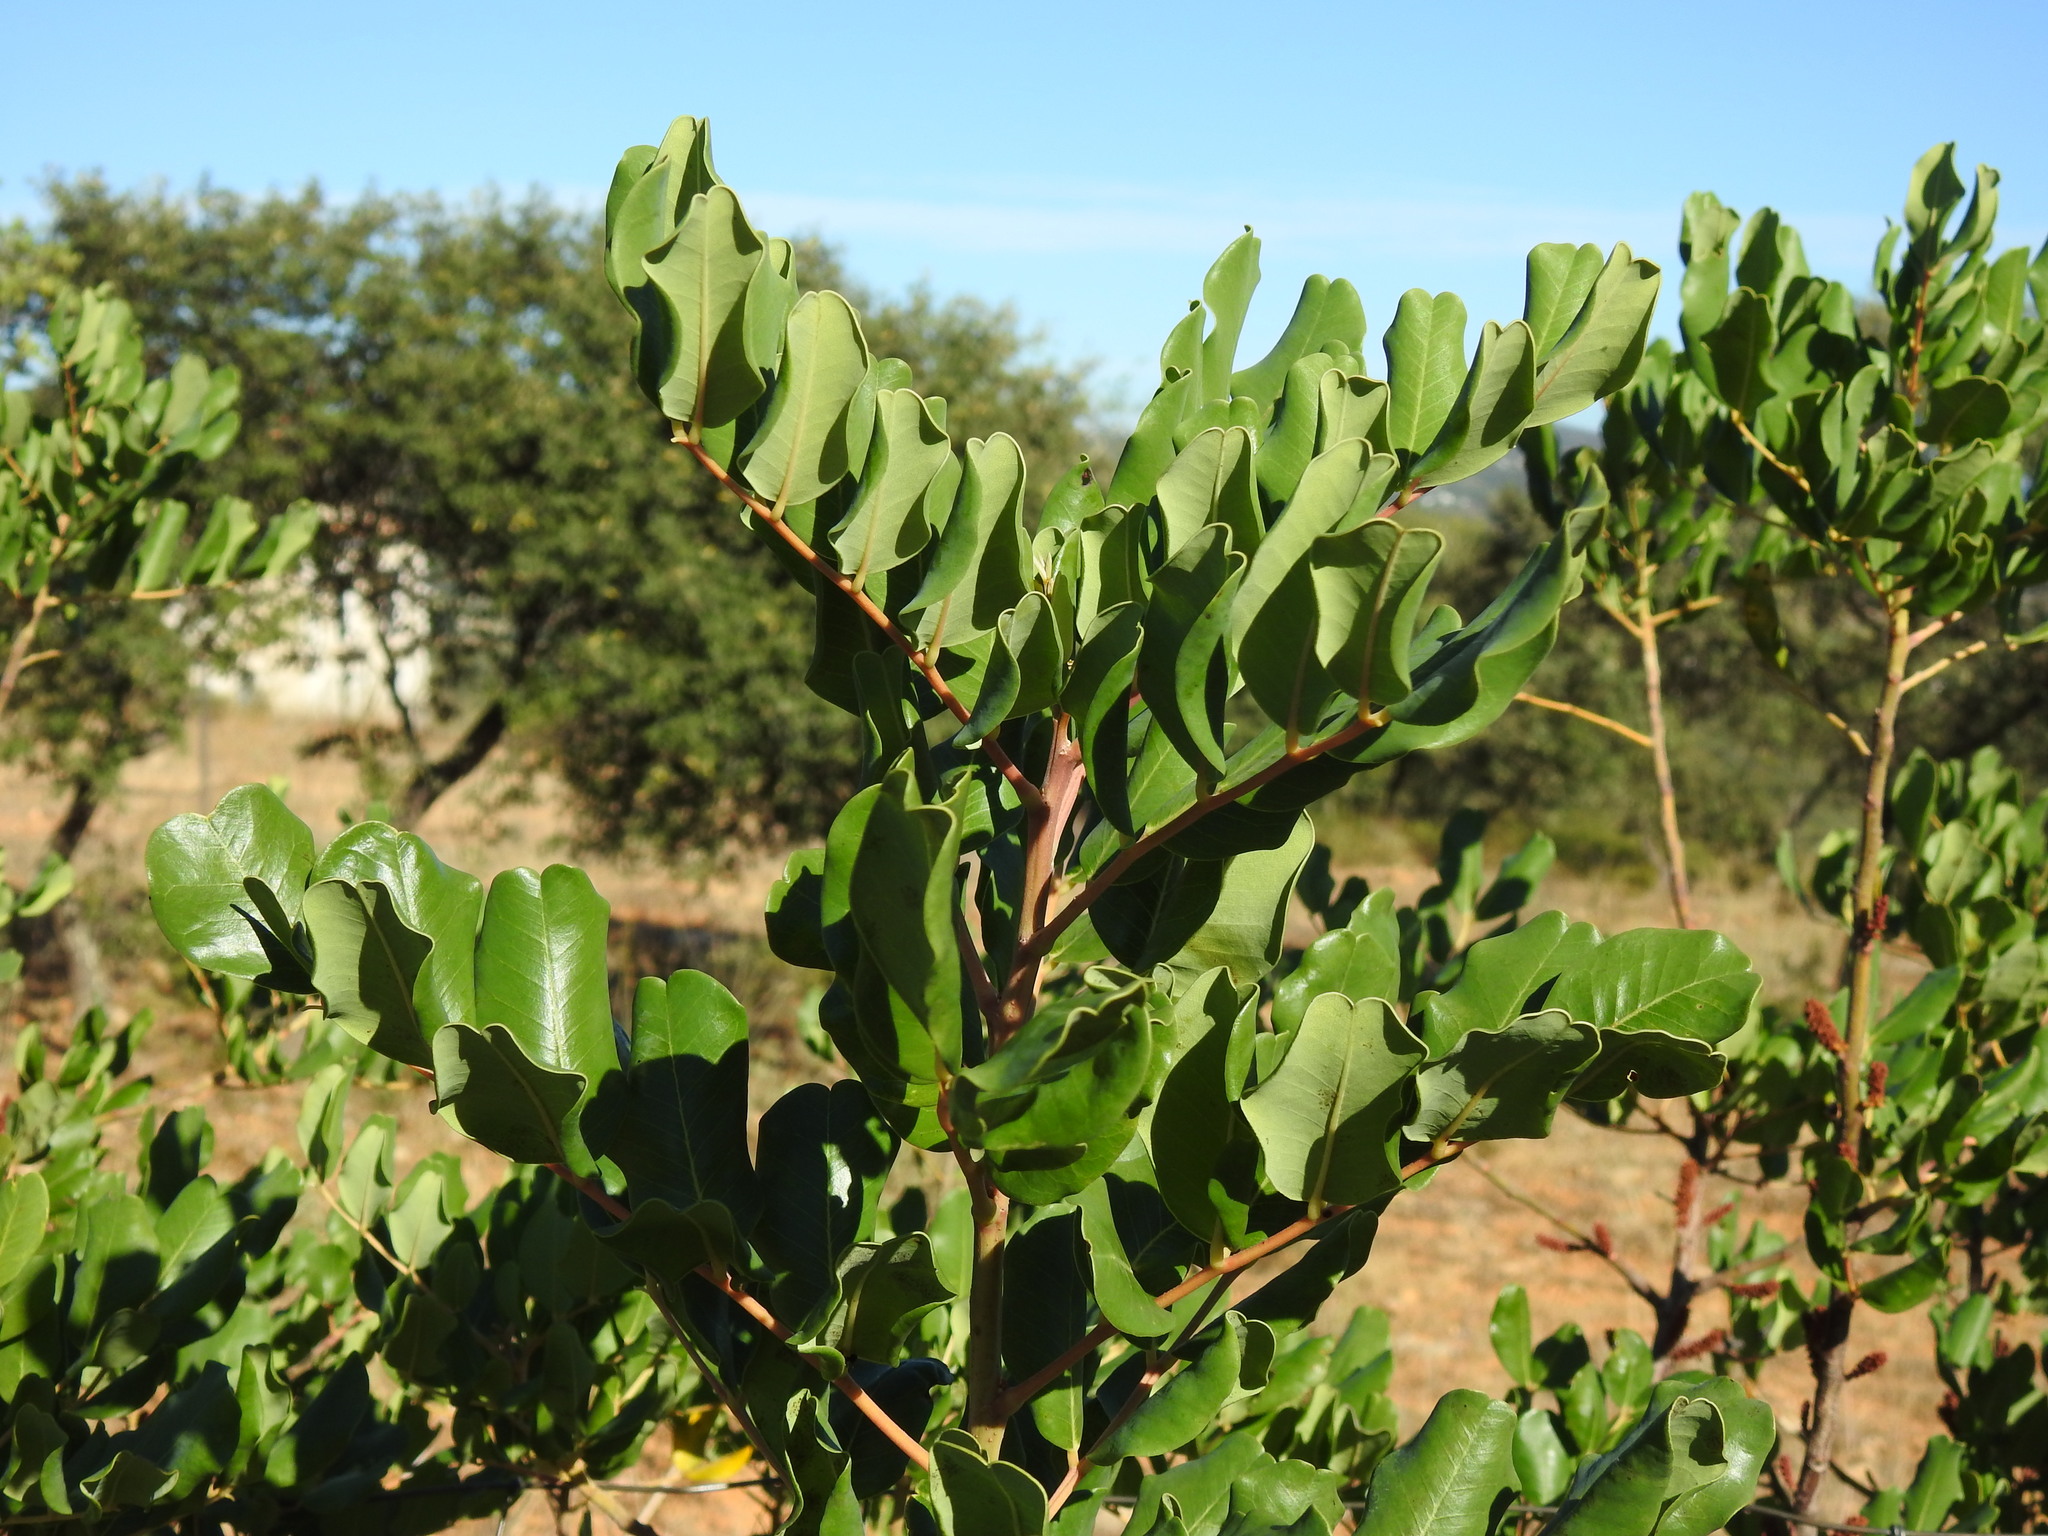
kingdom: Plantae
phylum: Tracheophyta
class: Magnoliopsida
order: Fabales
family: Fabaceae
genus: Ceratonia
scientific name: Ceratonia siliqua
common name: Carob
